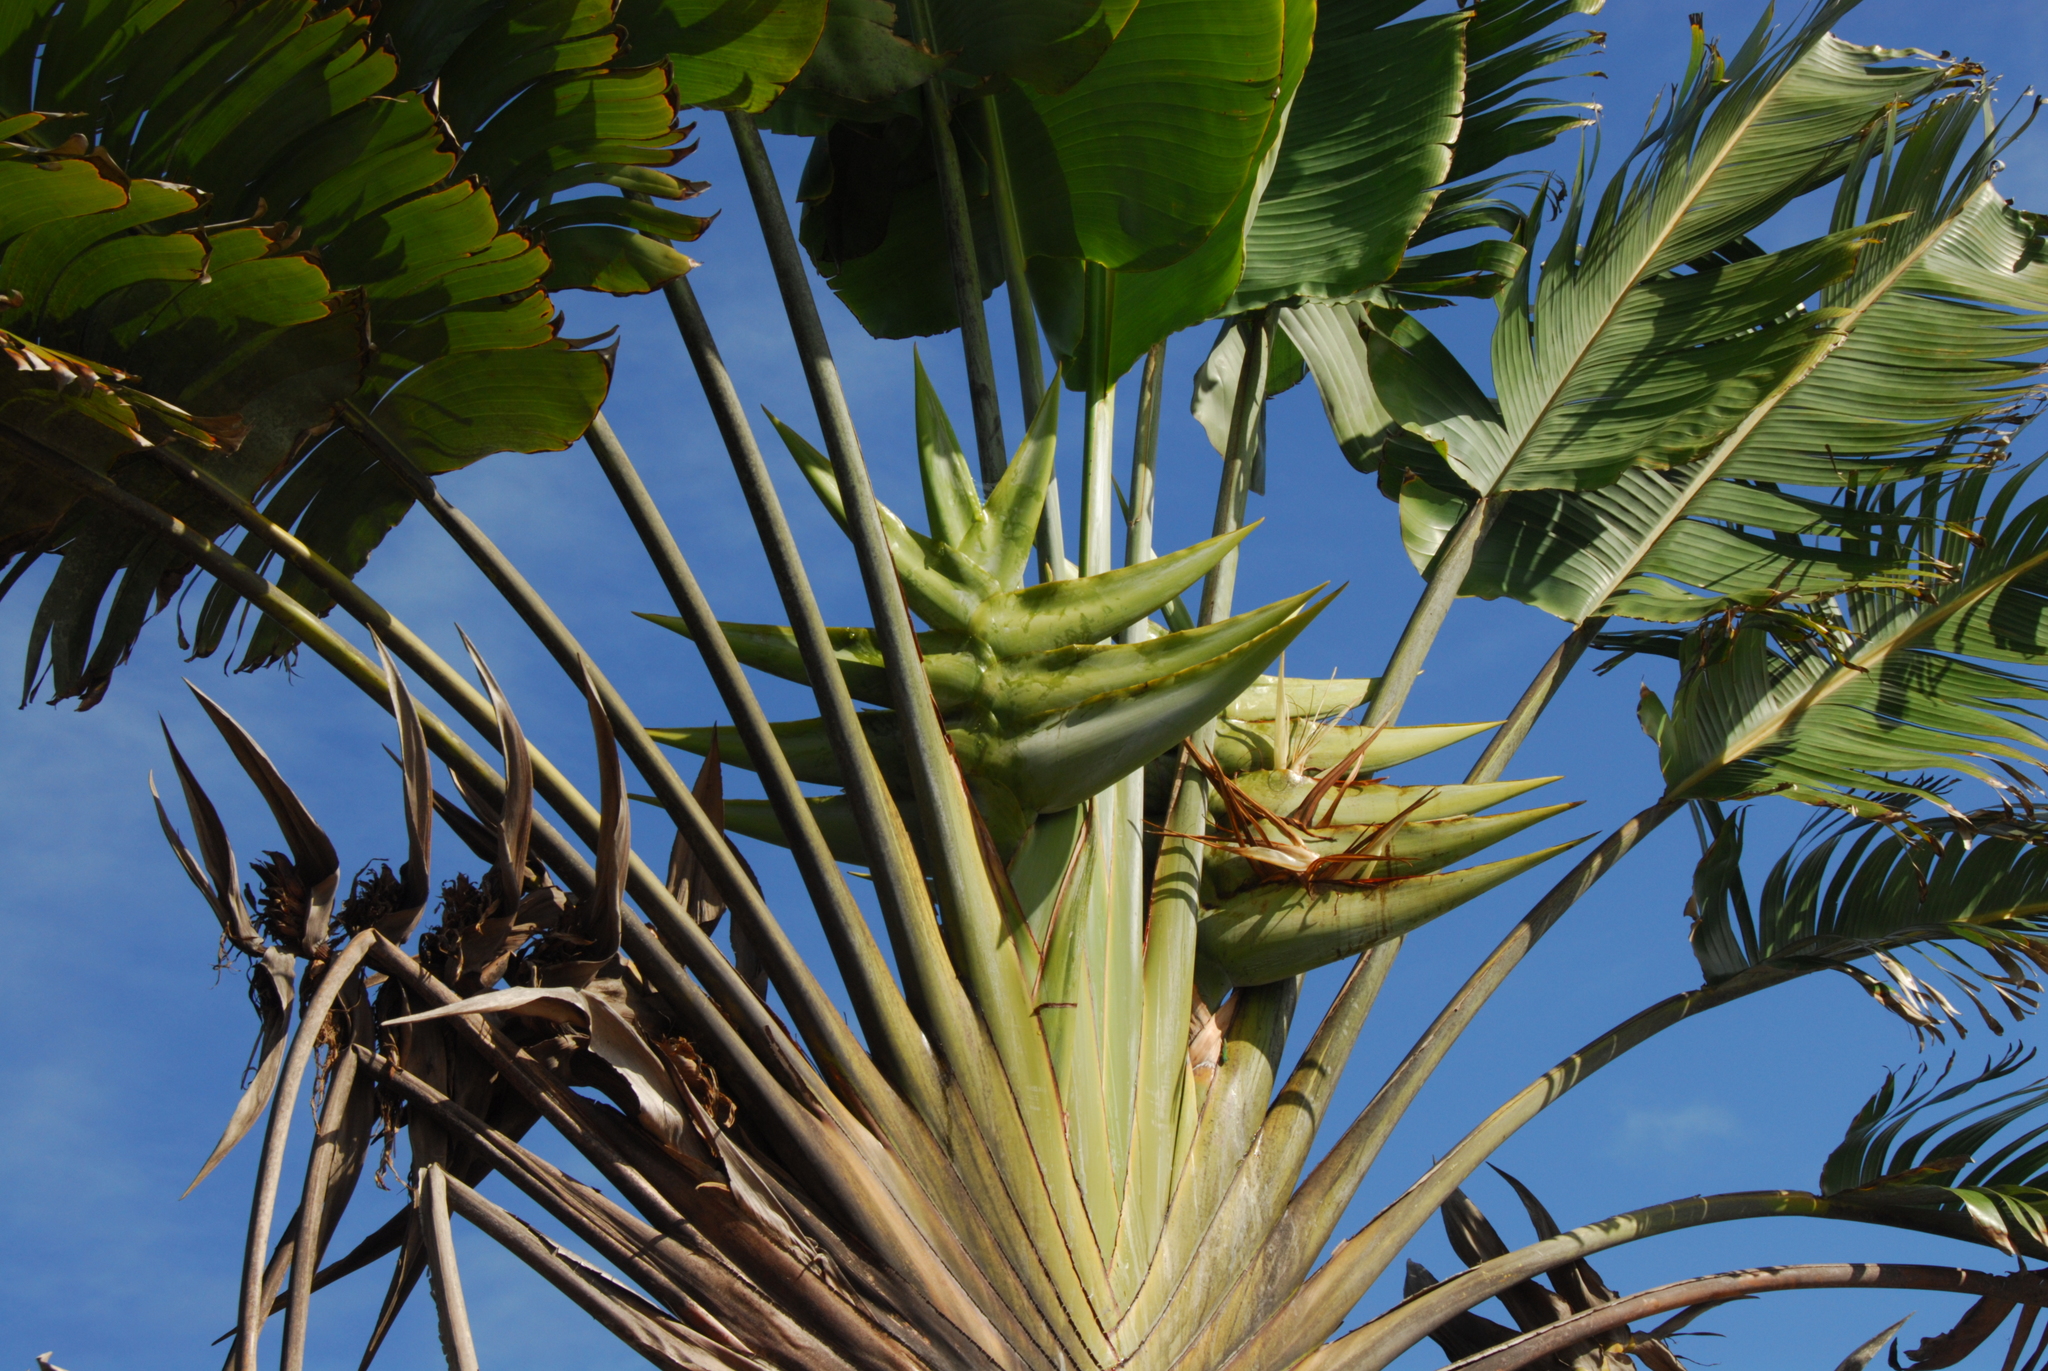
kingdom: Plantae
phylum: Tracheophyta
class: Liliopsida
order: Zingiberales
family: Strelitziaceae
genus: Ravenala
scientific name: Ravenala madagascariensis
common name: Traveler's-palm
